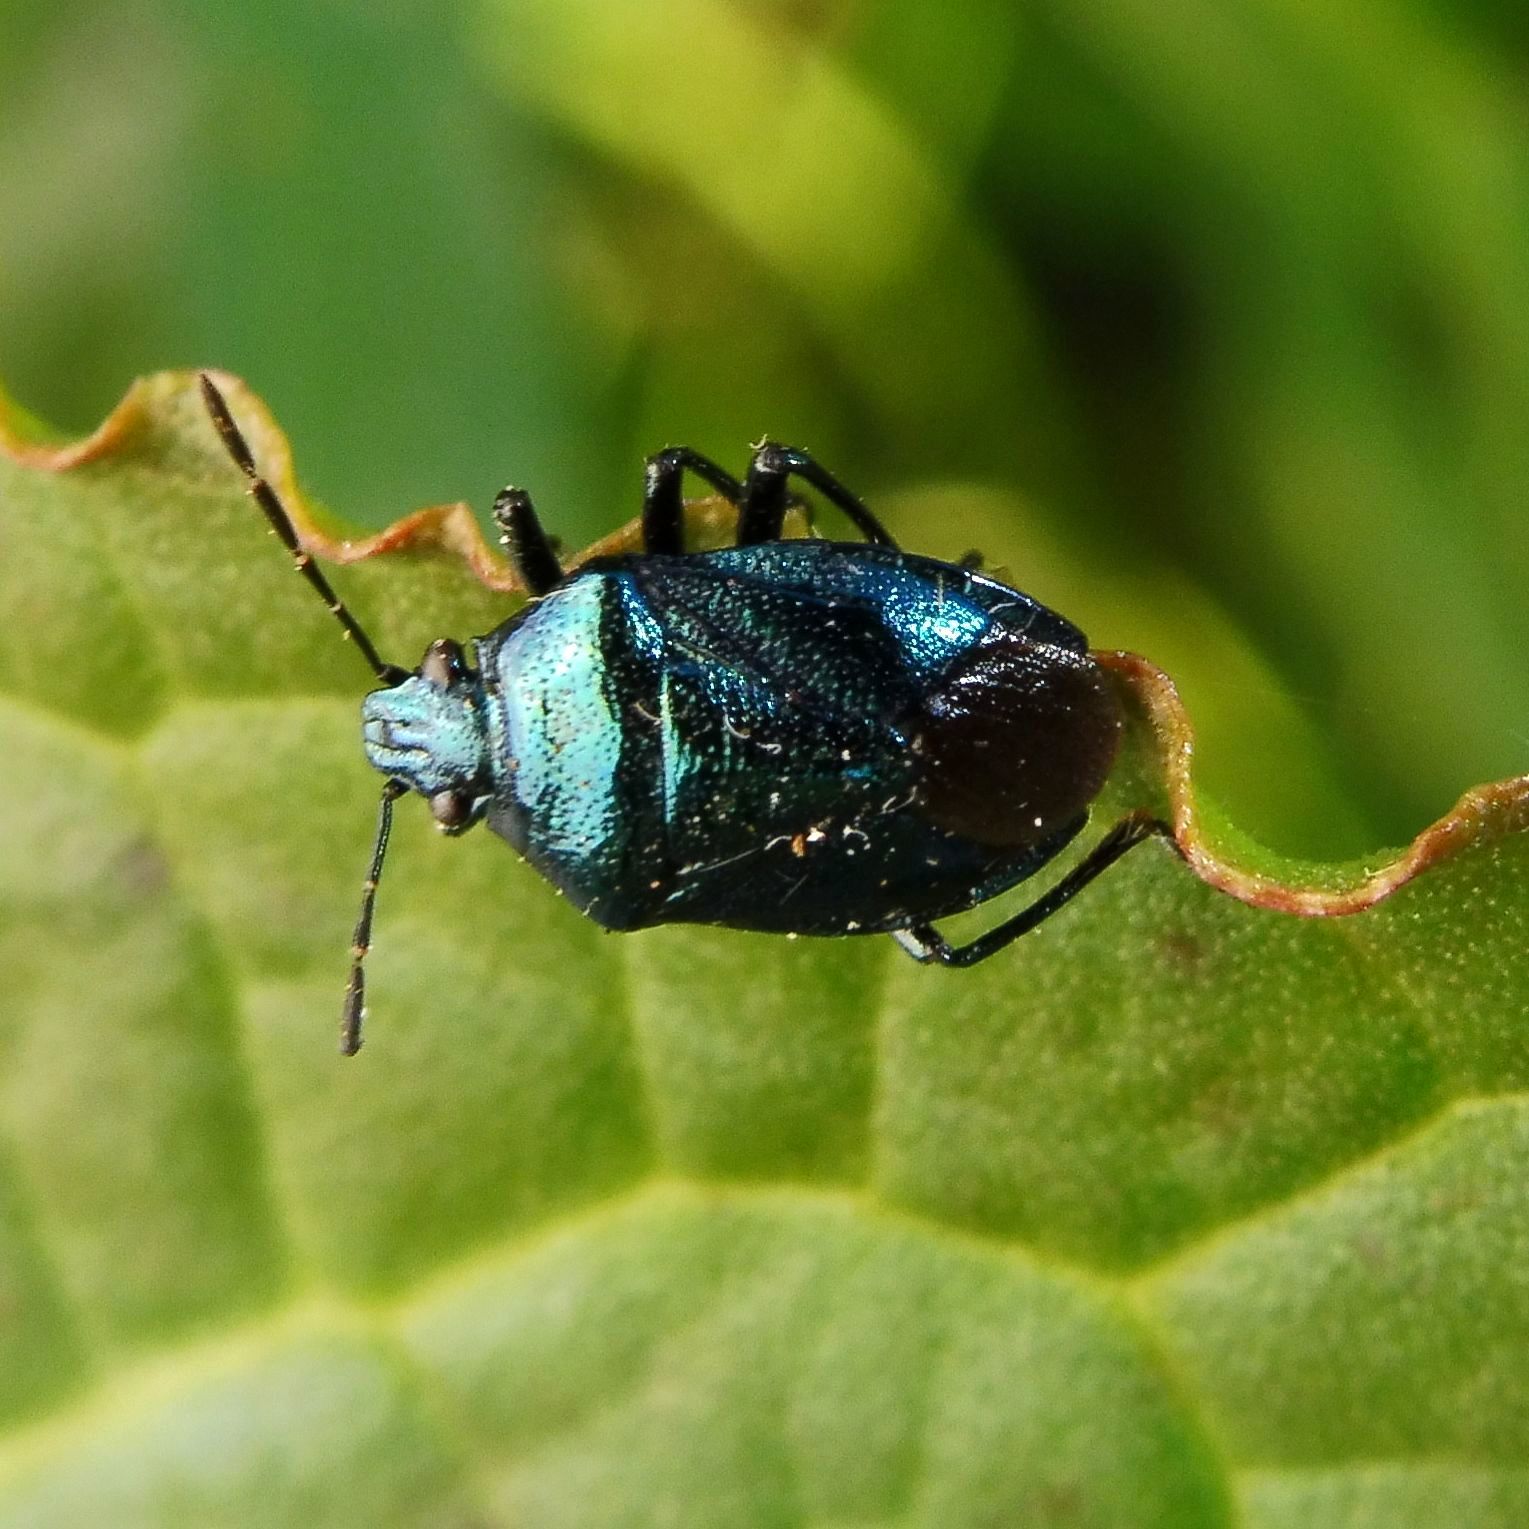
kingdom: Animalia
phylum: Arthropoda
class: Insecta
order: Hemiptera
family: Pentatomidae
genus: Zicrona
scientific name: Zicrona caerulea
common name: Blue shieldbug
